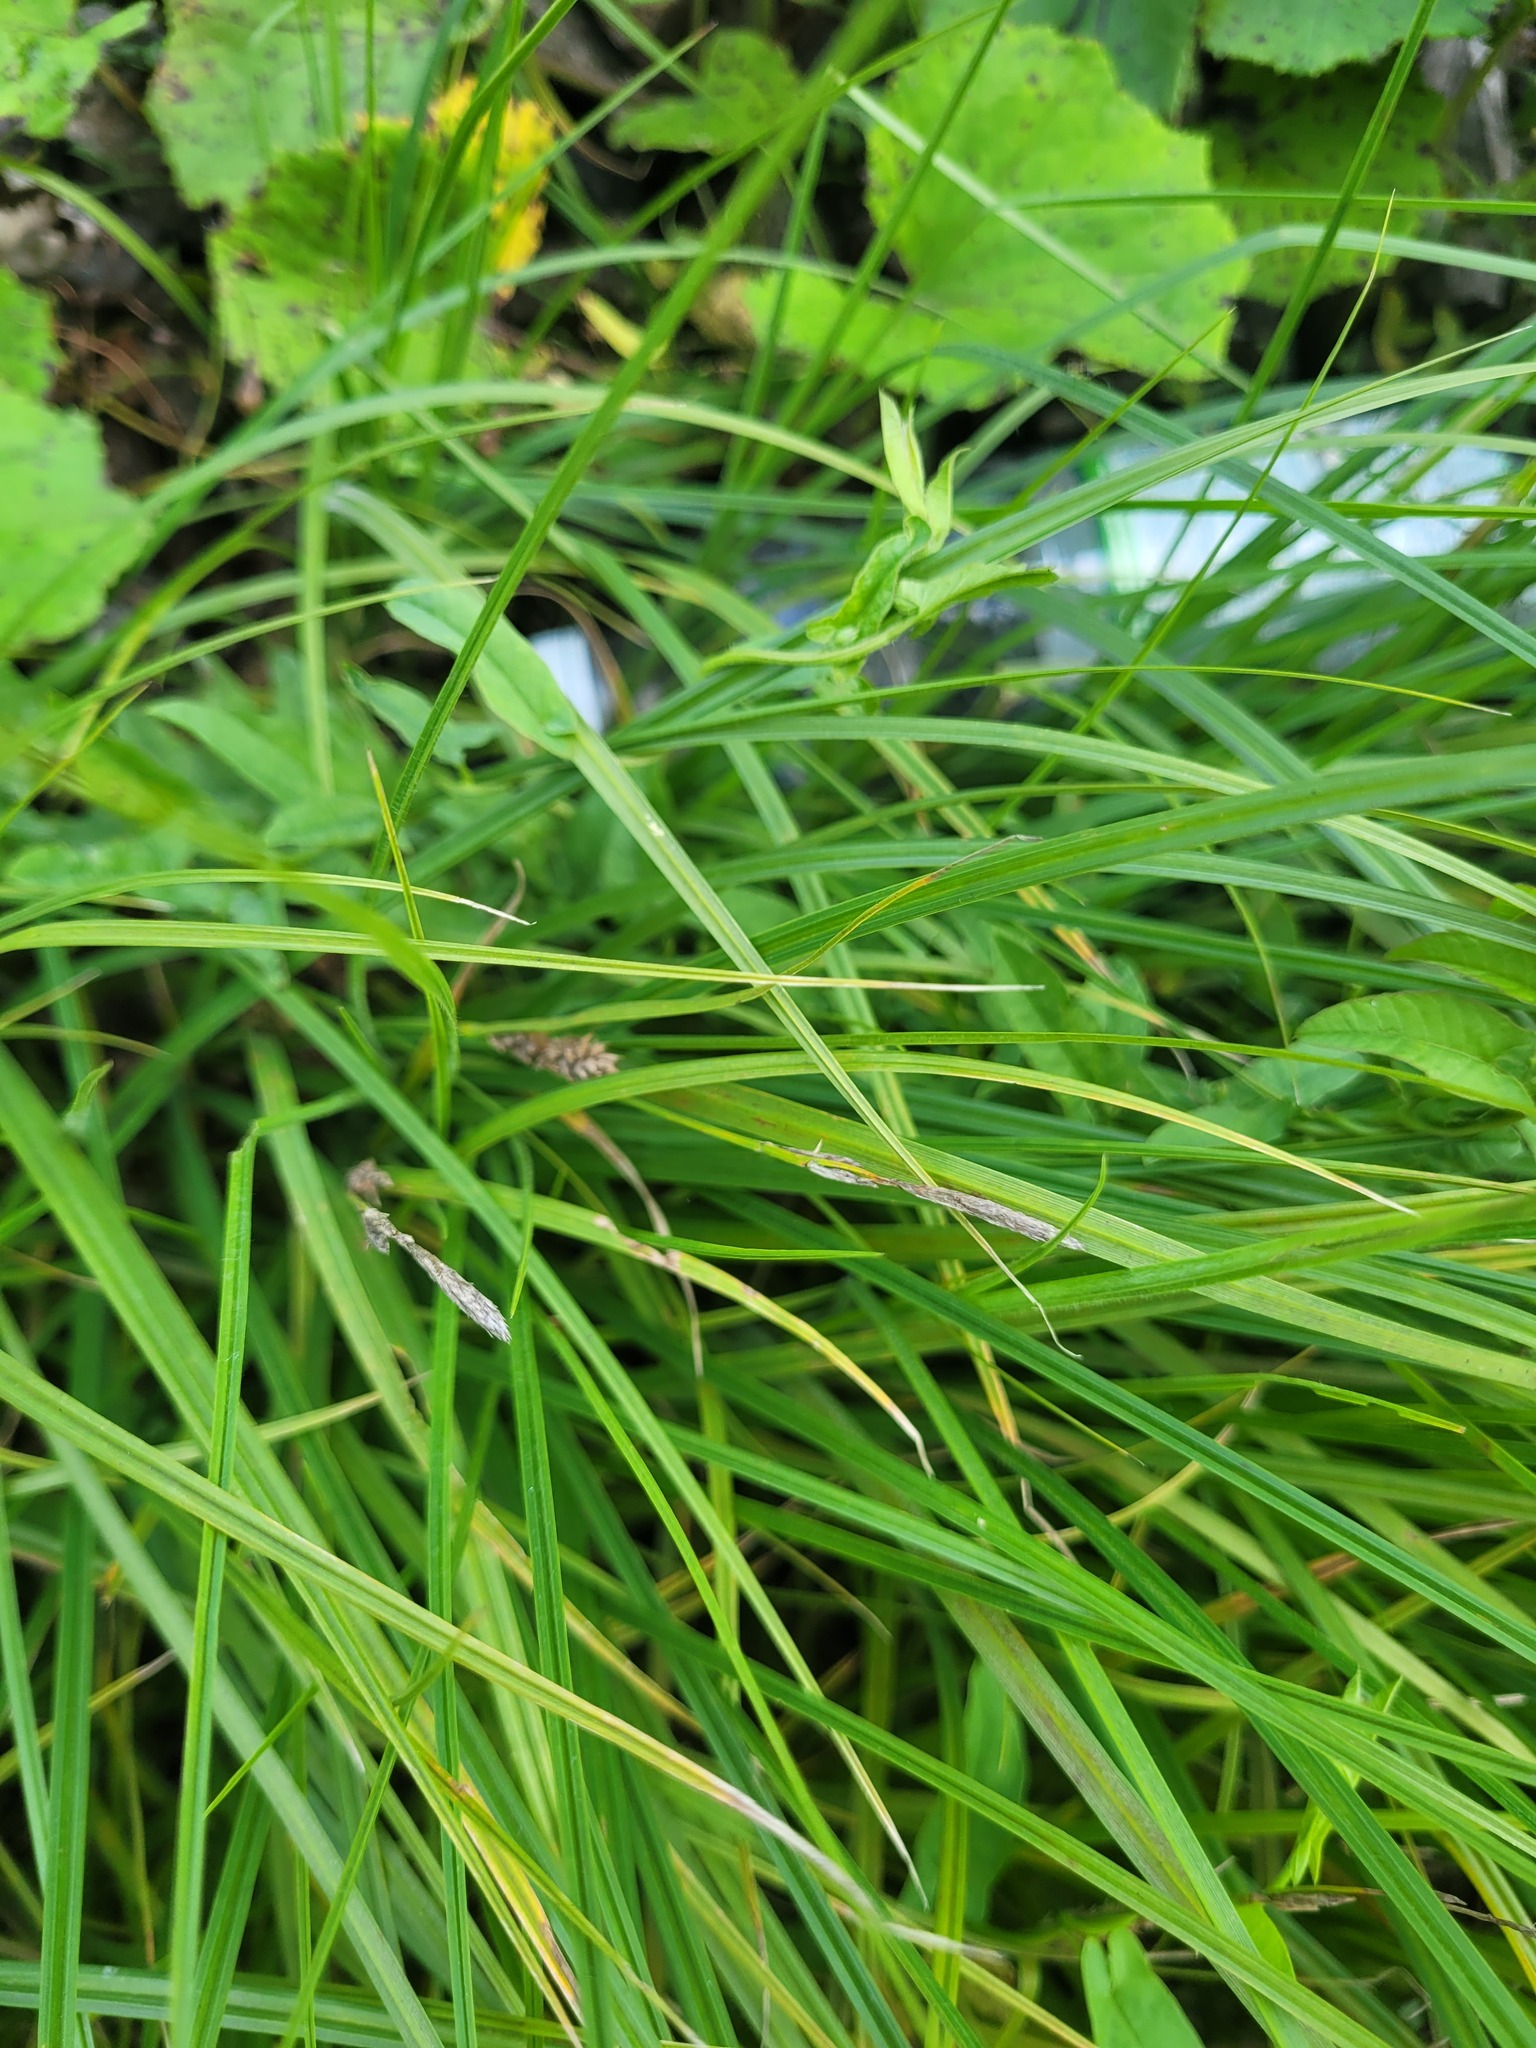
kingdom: Plantae
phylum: Tracheophyta
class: Liliopsida
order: Poales
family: Cyperaceae
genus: Carex
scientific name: Carex hirta
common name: Hairy sedge
